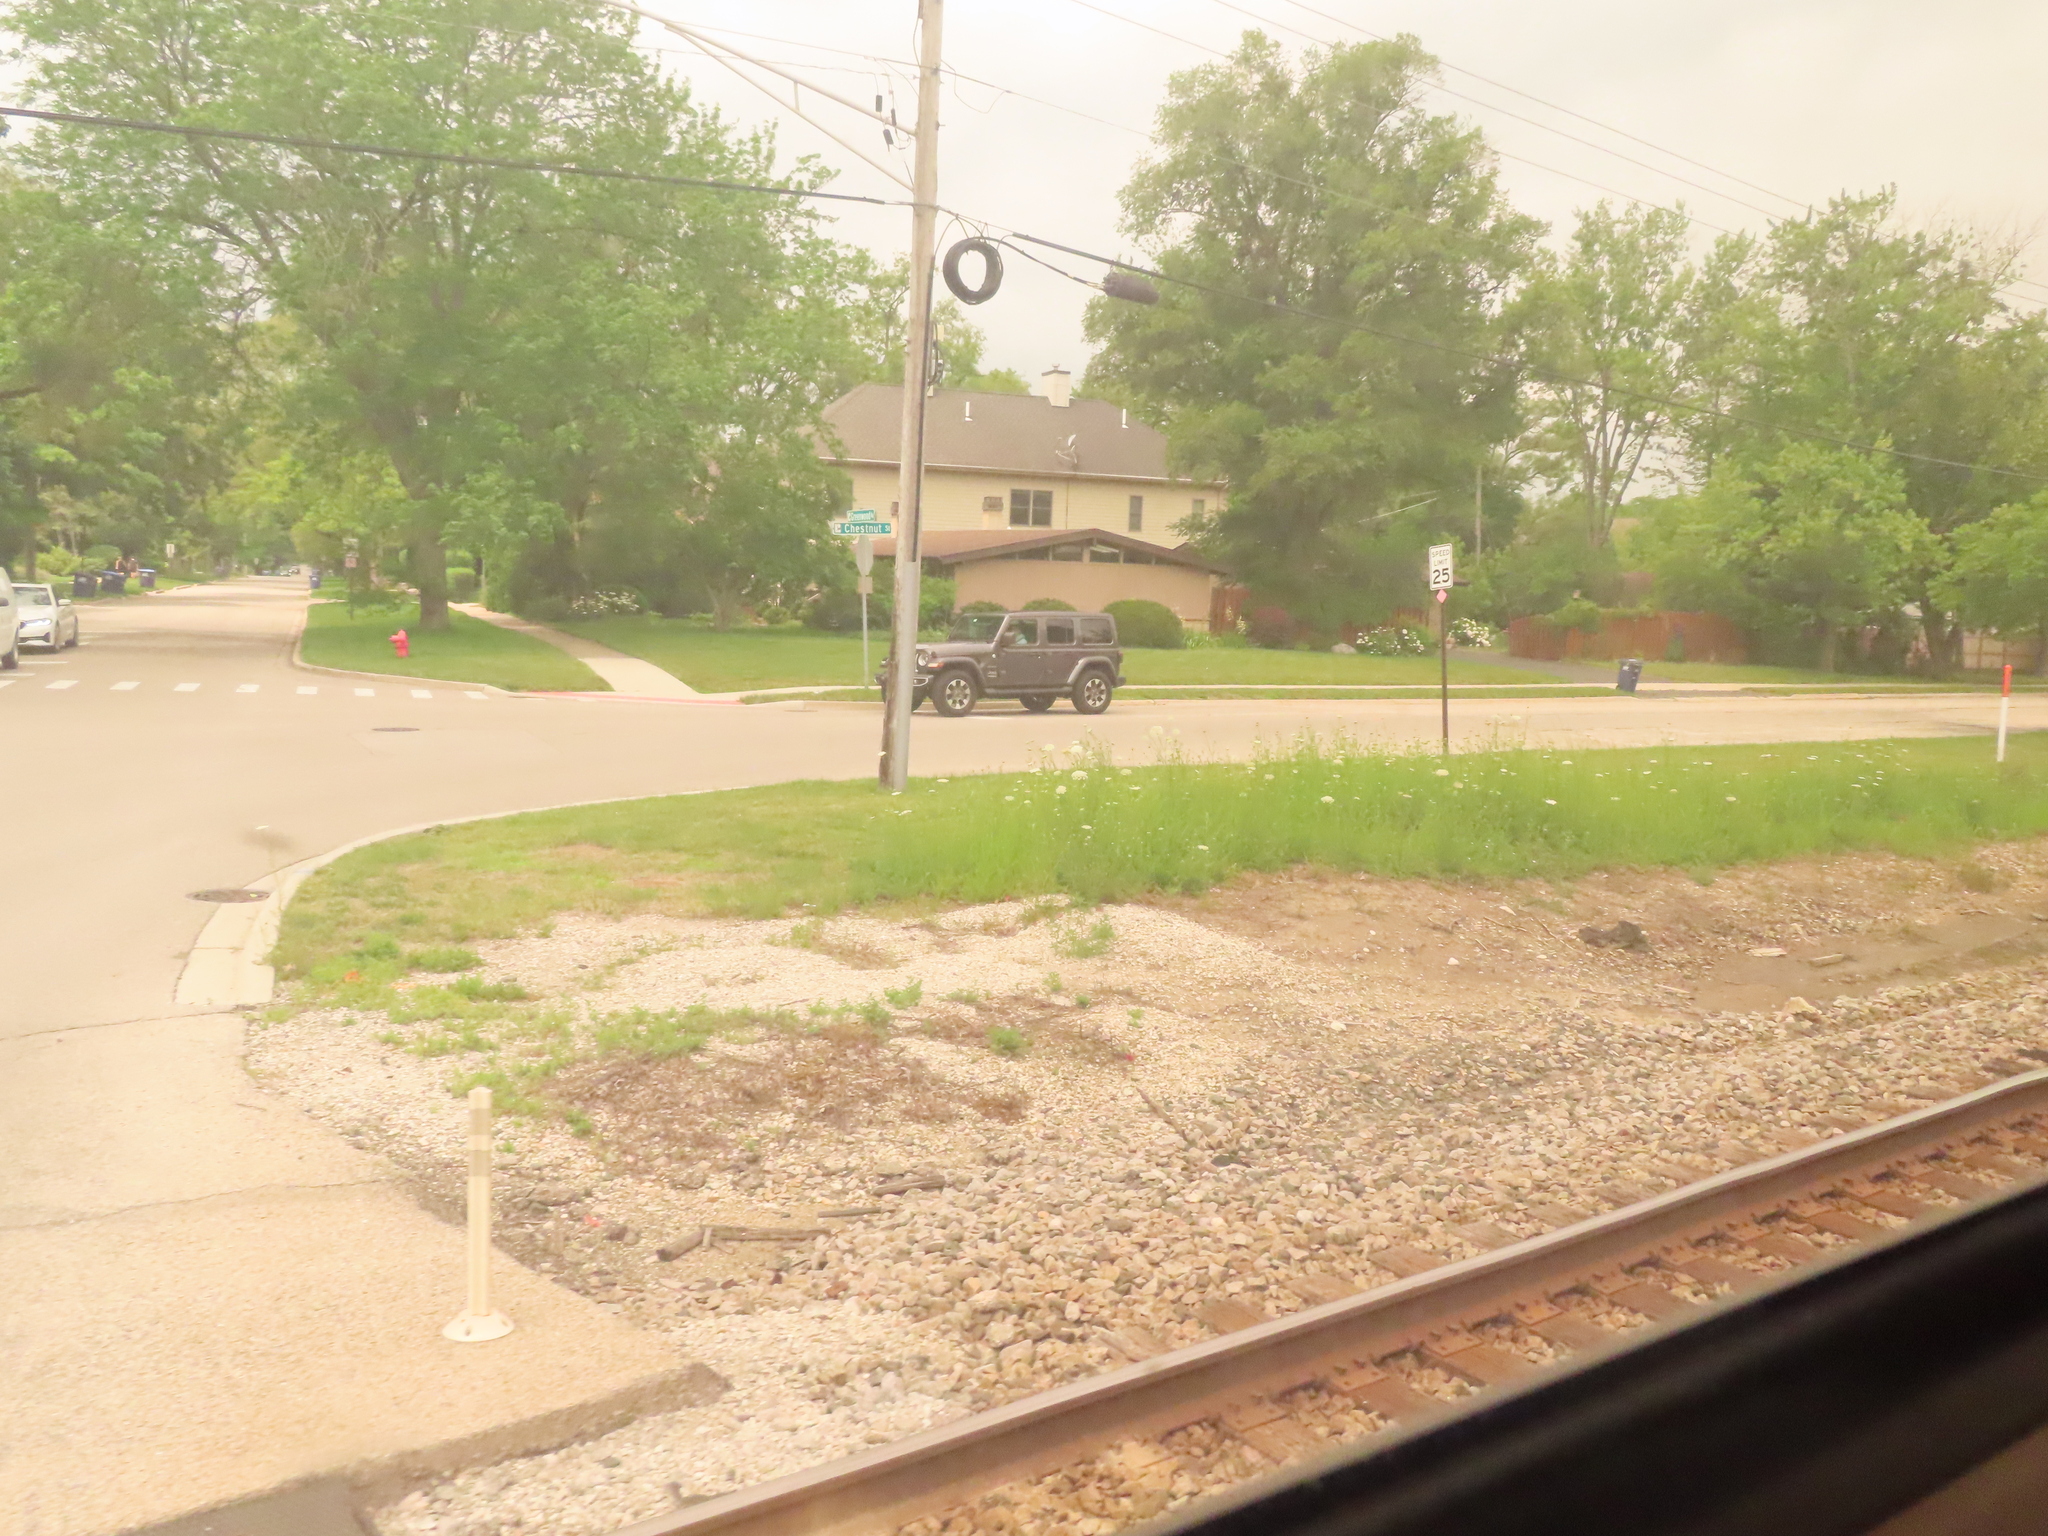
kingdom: Plantae
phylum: Tracheophyta
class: Magnoliopsida
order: Apiales
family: Apiaceae
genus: Daucus
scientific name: Daucus carota
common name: Wild carrot
